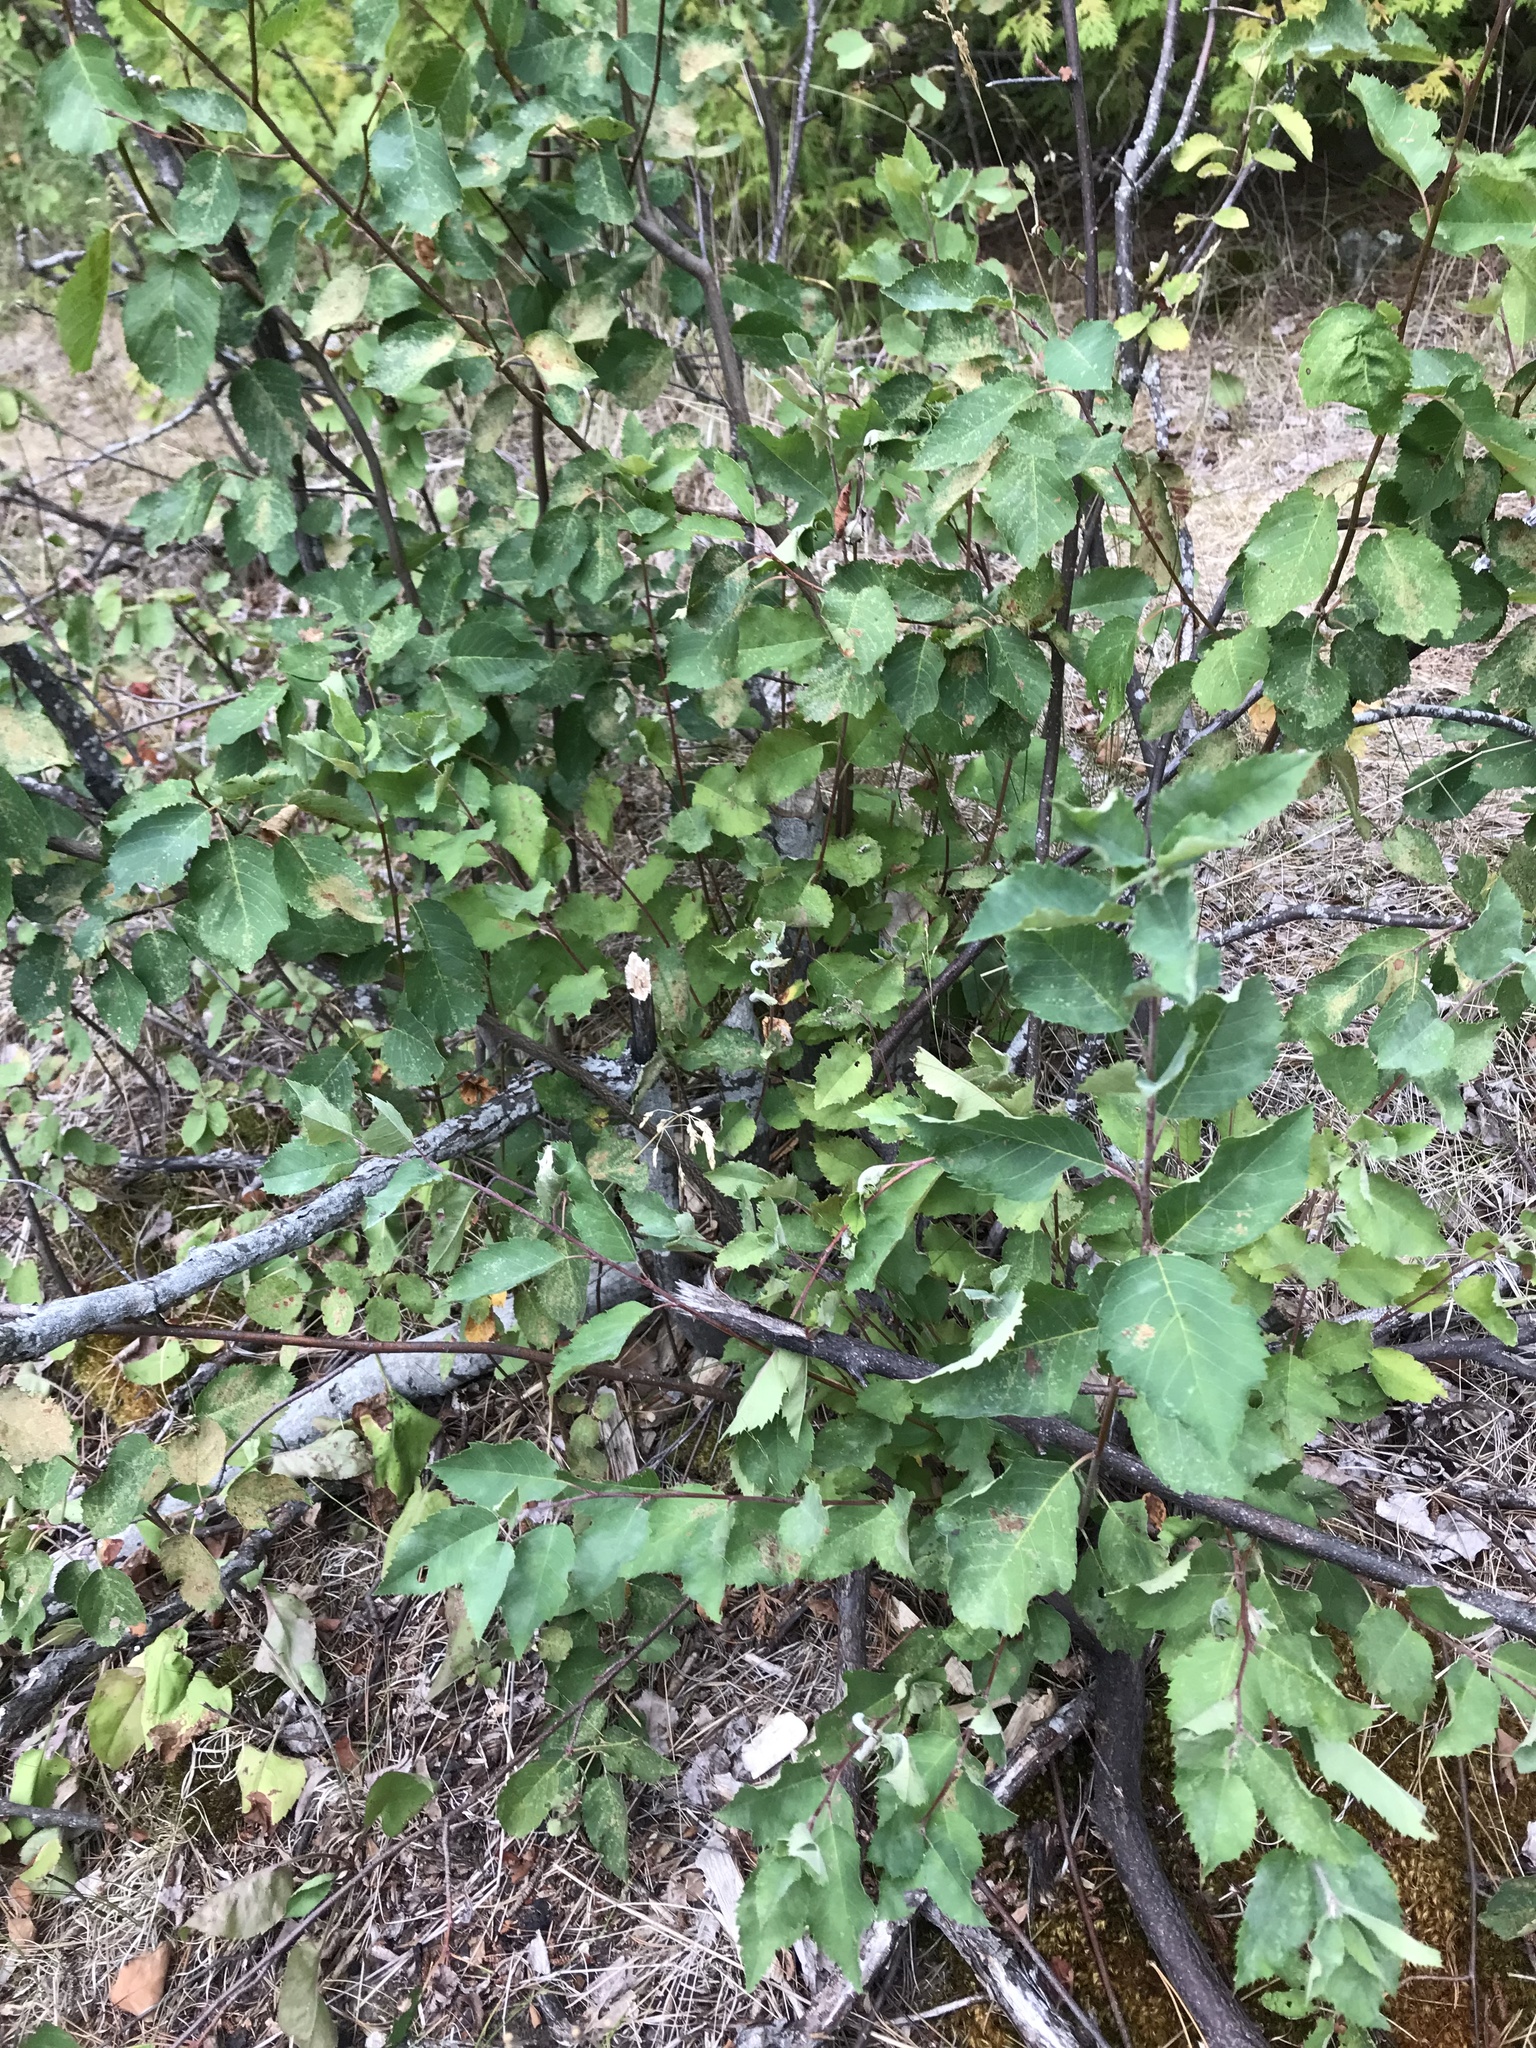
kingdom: Plantae
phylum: Tracheophyta
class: Magnoliopsida
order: Rosales
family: Rosaceae
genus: Prunus
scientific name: Prunus pensylvanica
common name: Pin cherry
